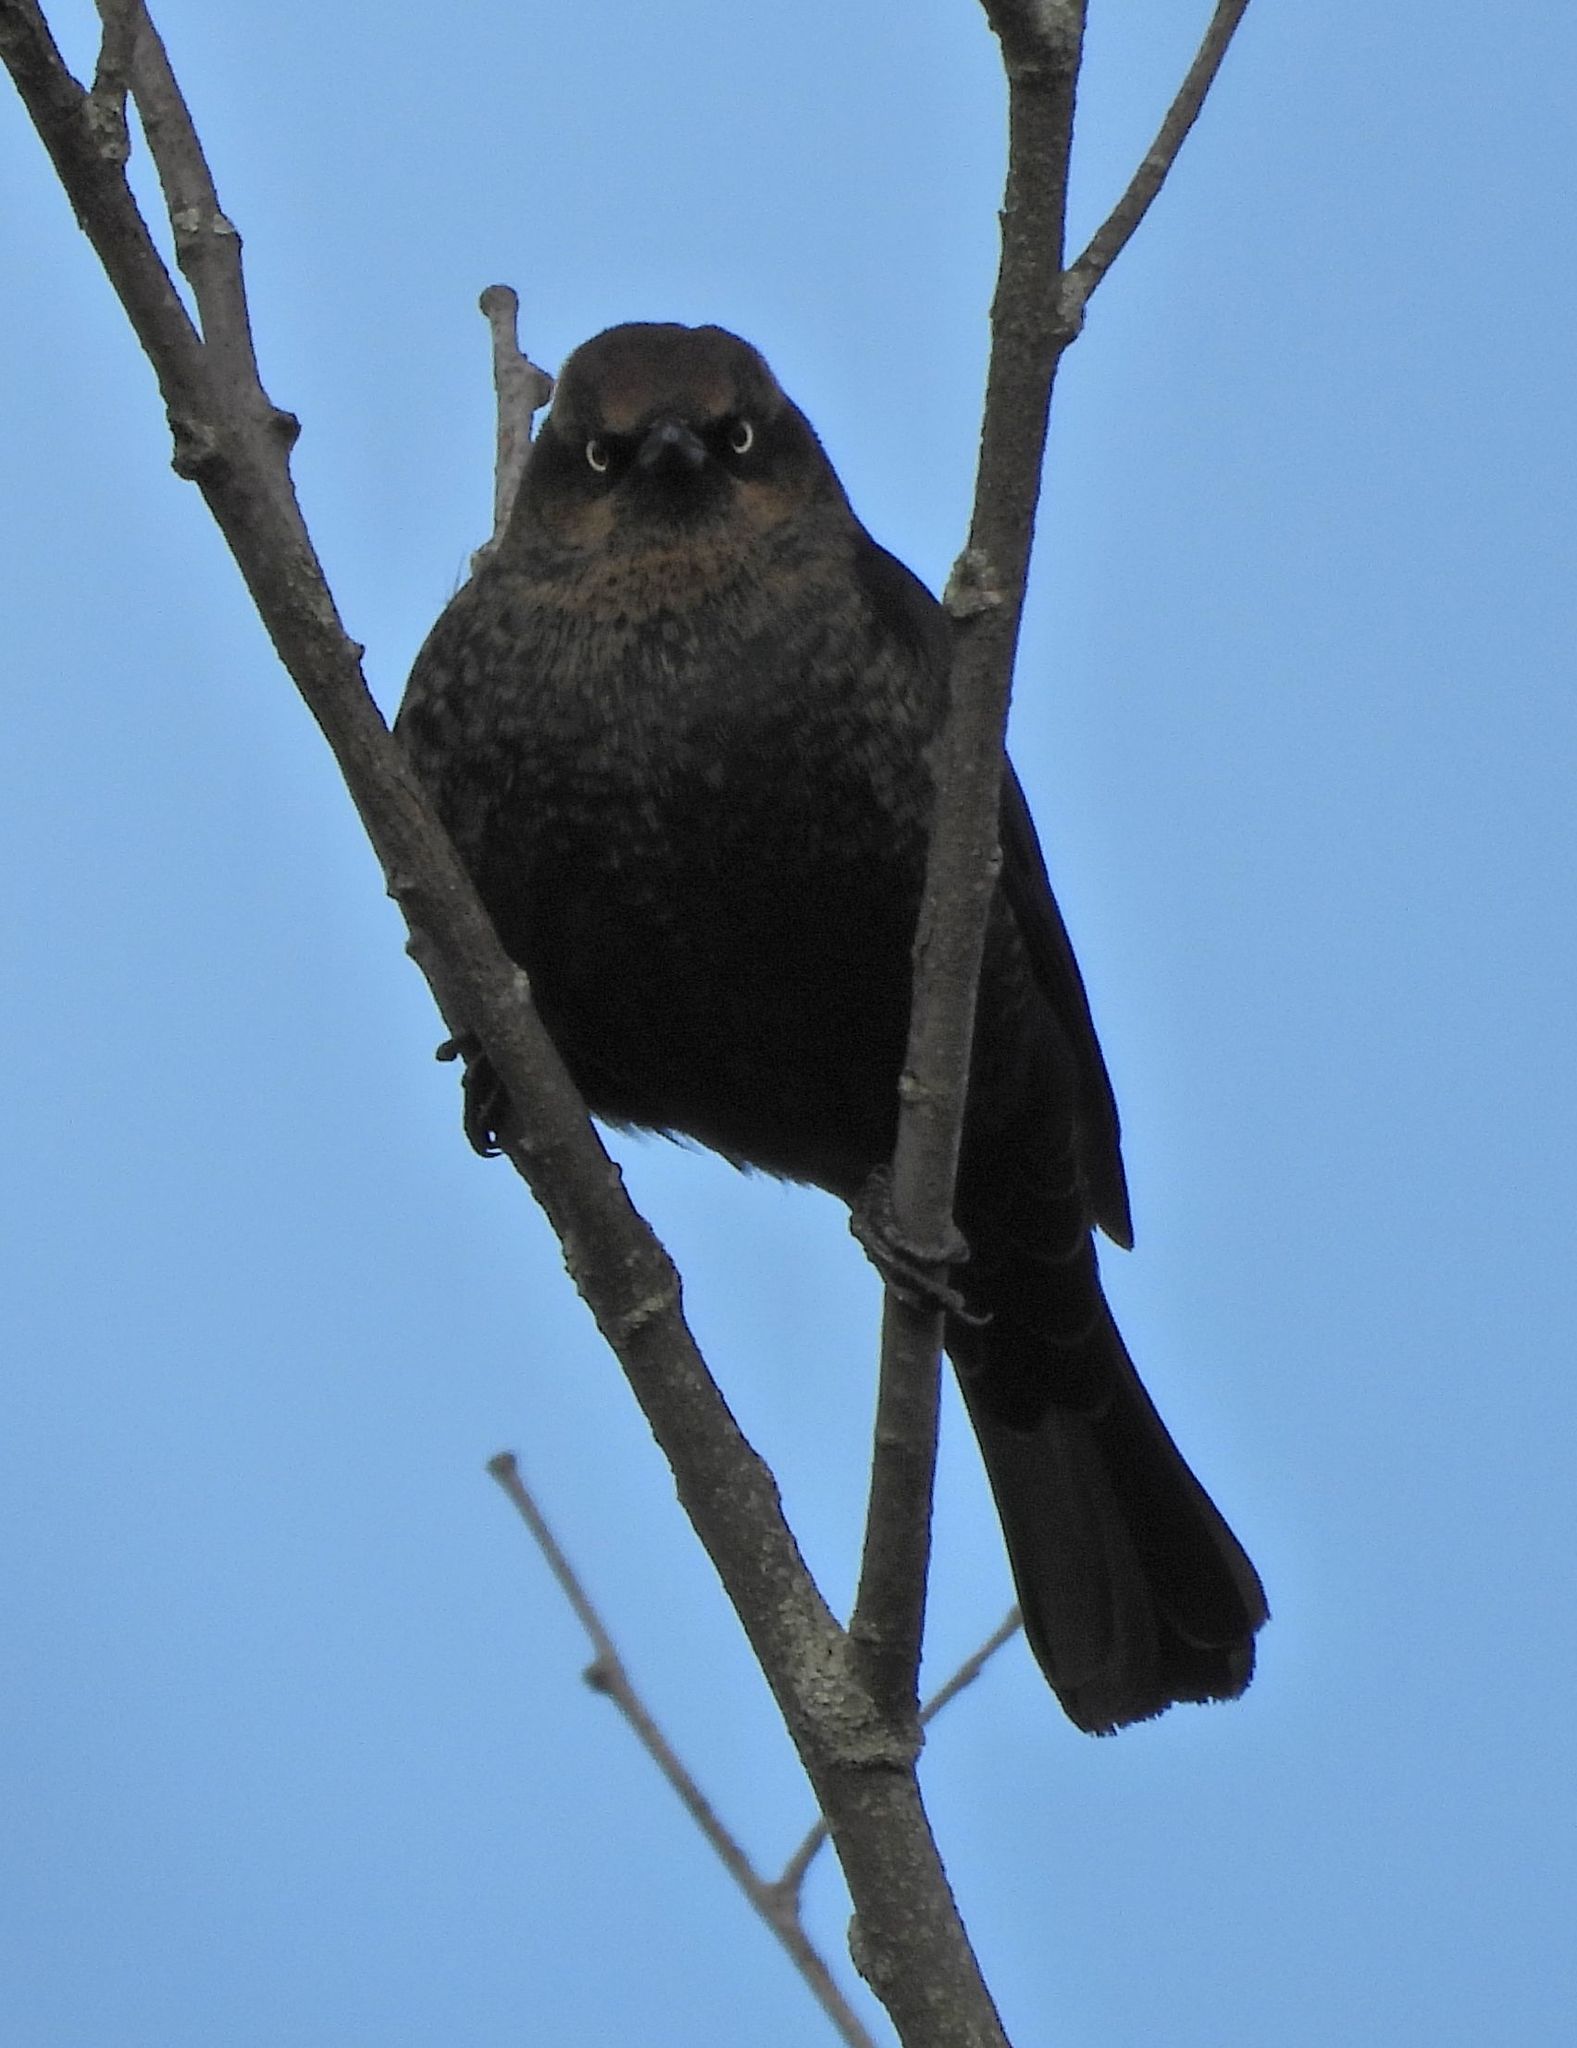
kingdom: Animalia
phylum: Chordata
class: Aves
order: Passeriformes
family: Icteridae
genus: Euphagus
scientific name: Euphagus carolinus
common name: Rusty blackbird
